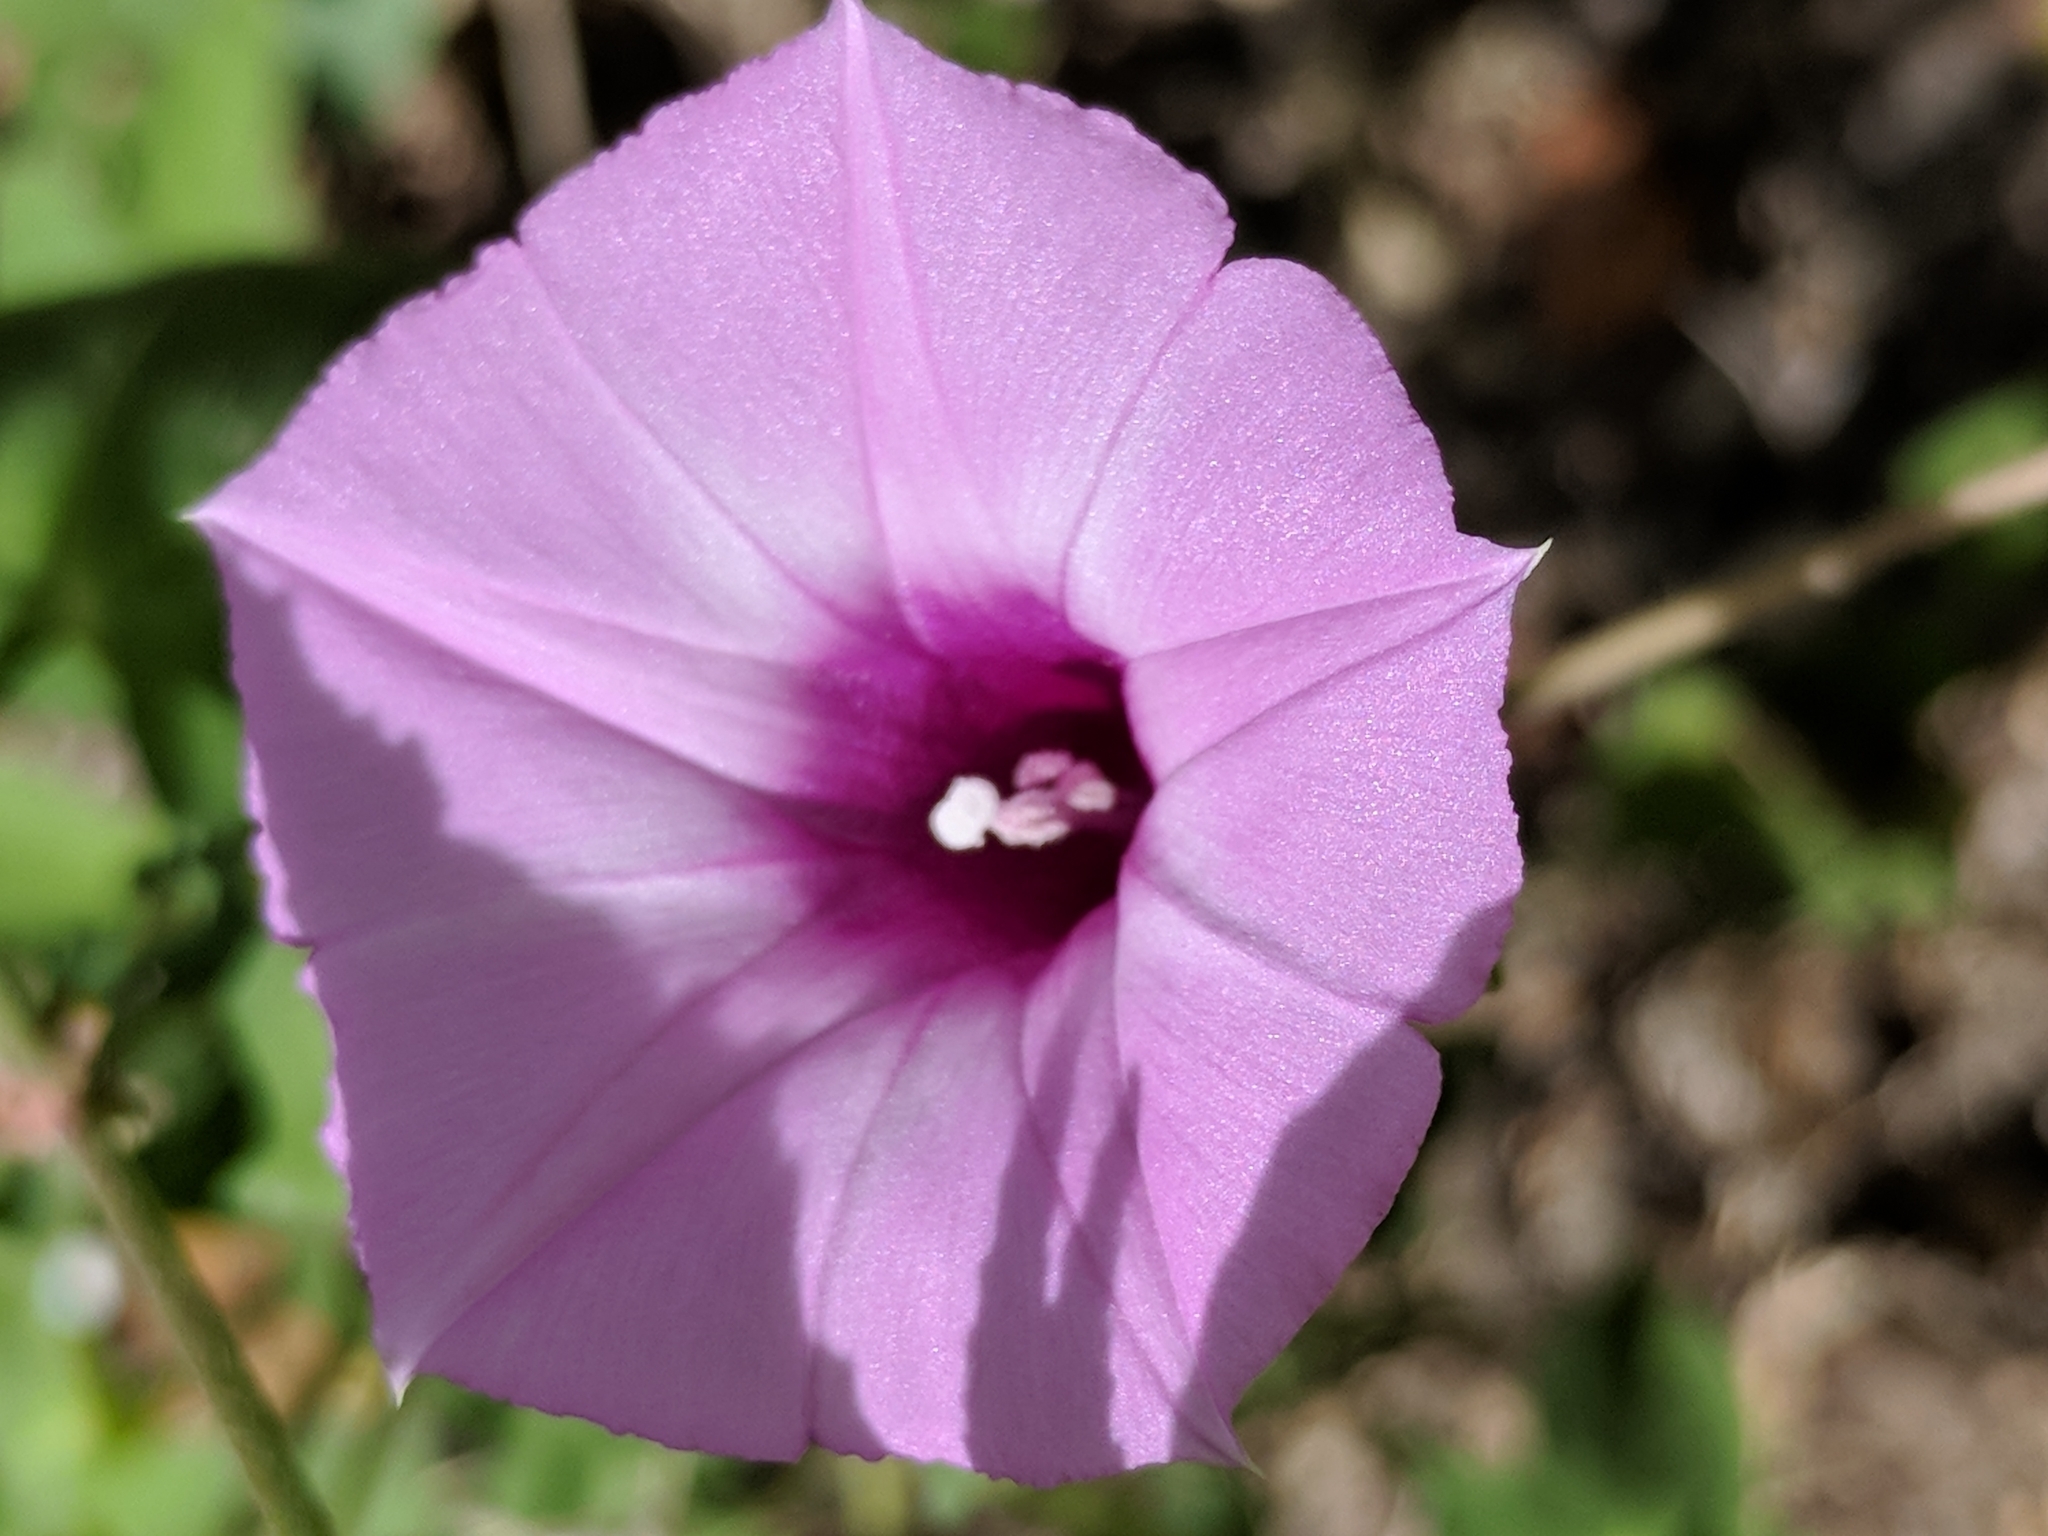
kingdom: Plantae
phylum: Tracheophyta
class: Magnoliopsida
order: Solanales
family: Convolvulaceae
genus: Ipomoea
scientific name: Ipomoea cordatotriloba
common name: Cotton morning glory
